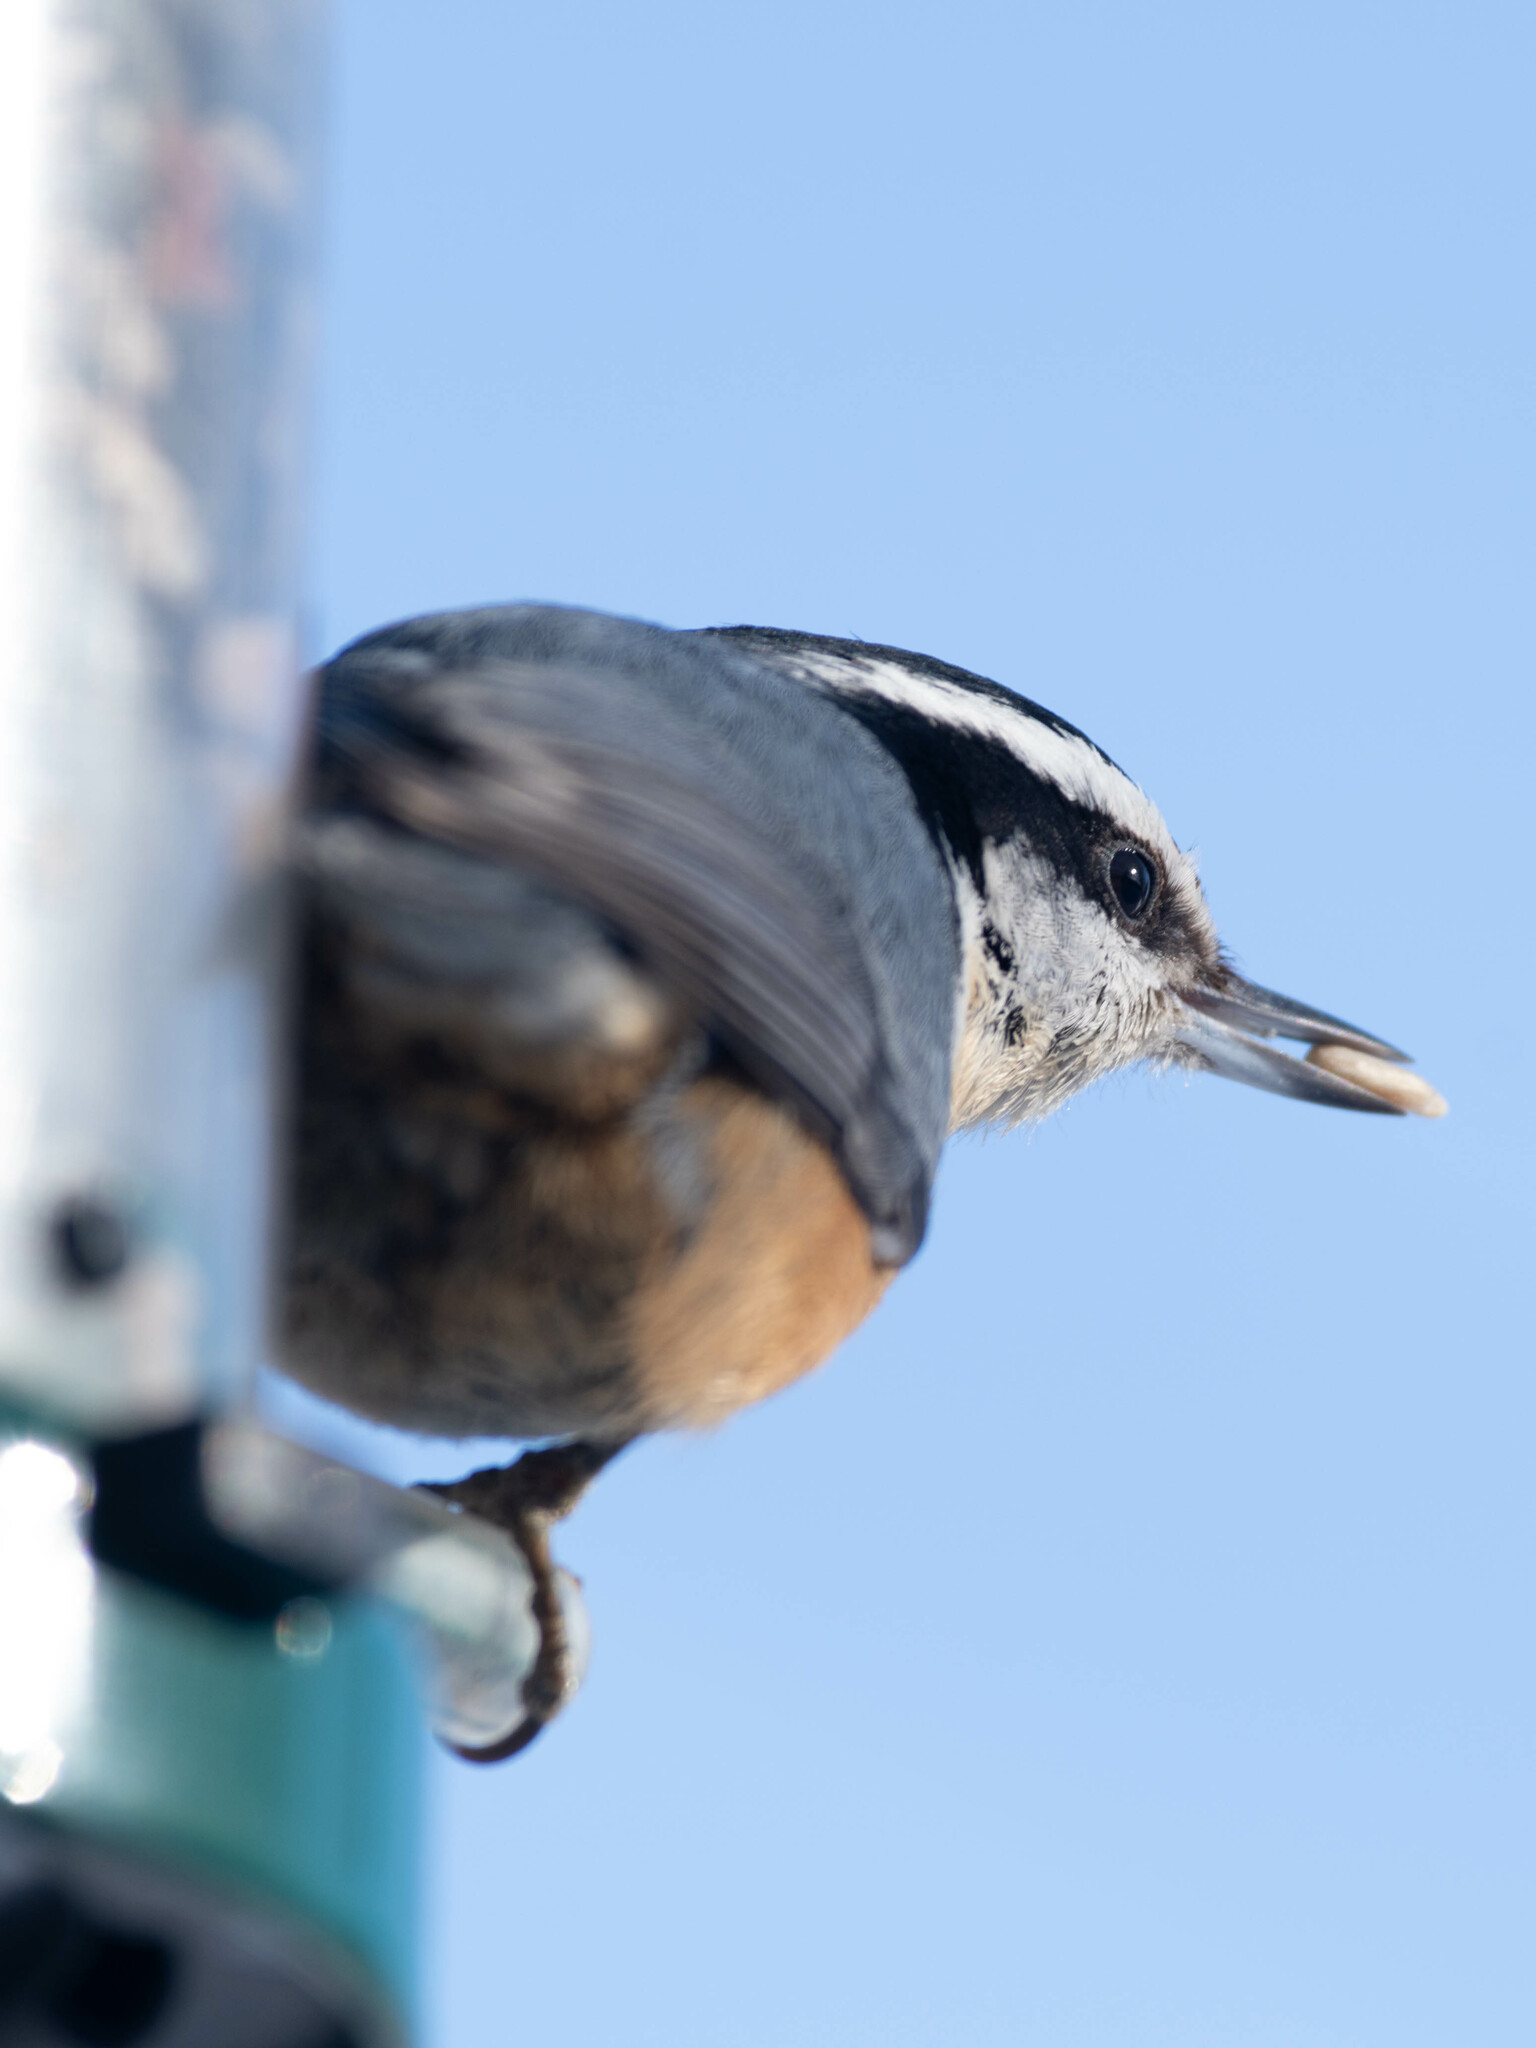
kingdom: Animalia
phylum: Chordata
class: Aves
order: Passeriformes
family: Sittidae
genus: Sitta
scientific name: Sitta canadensis
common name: Red-breasted nuthatch
